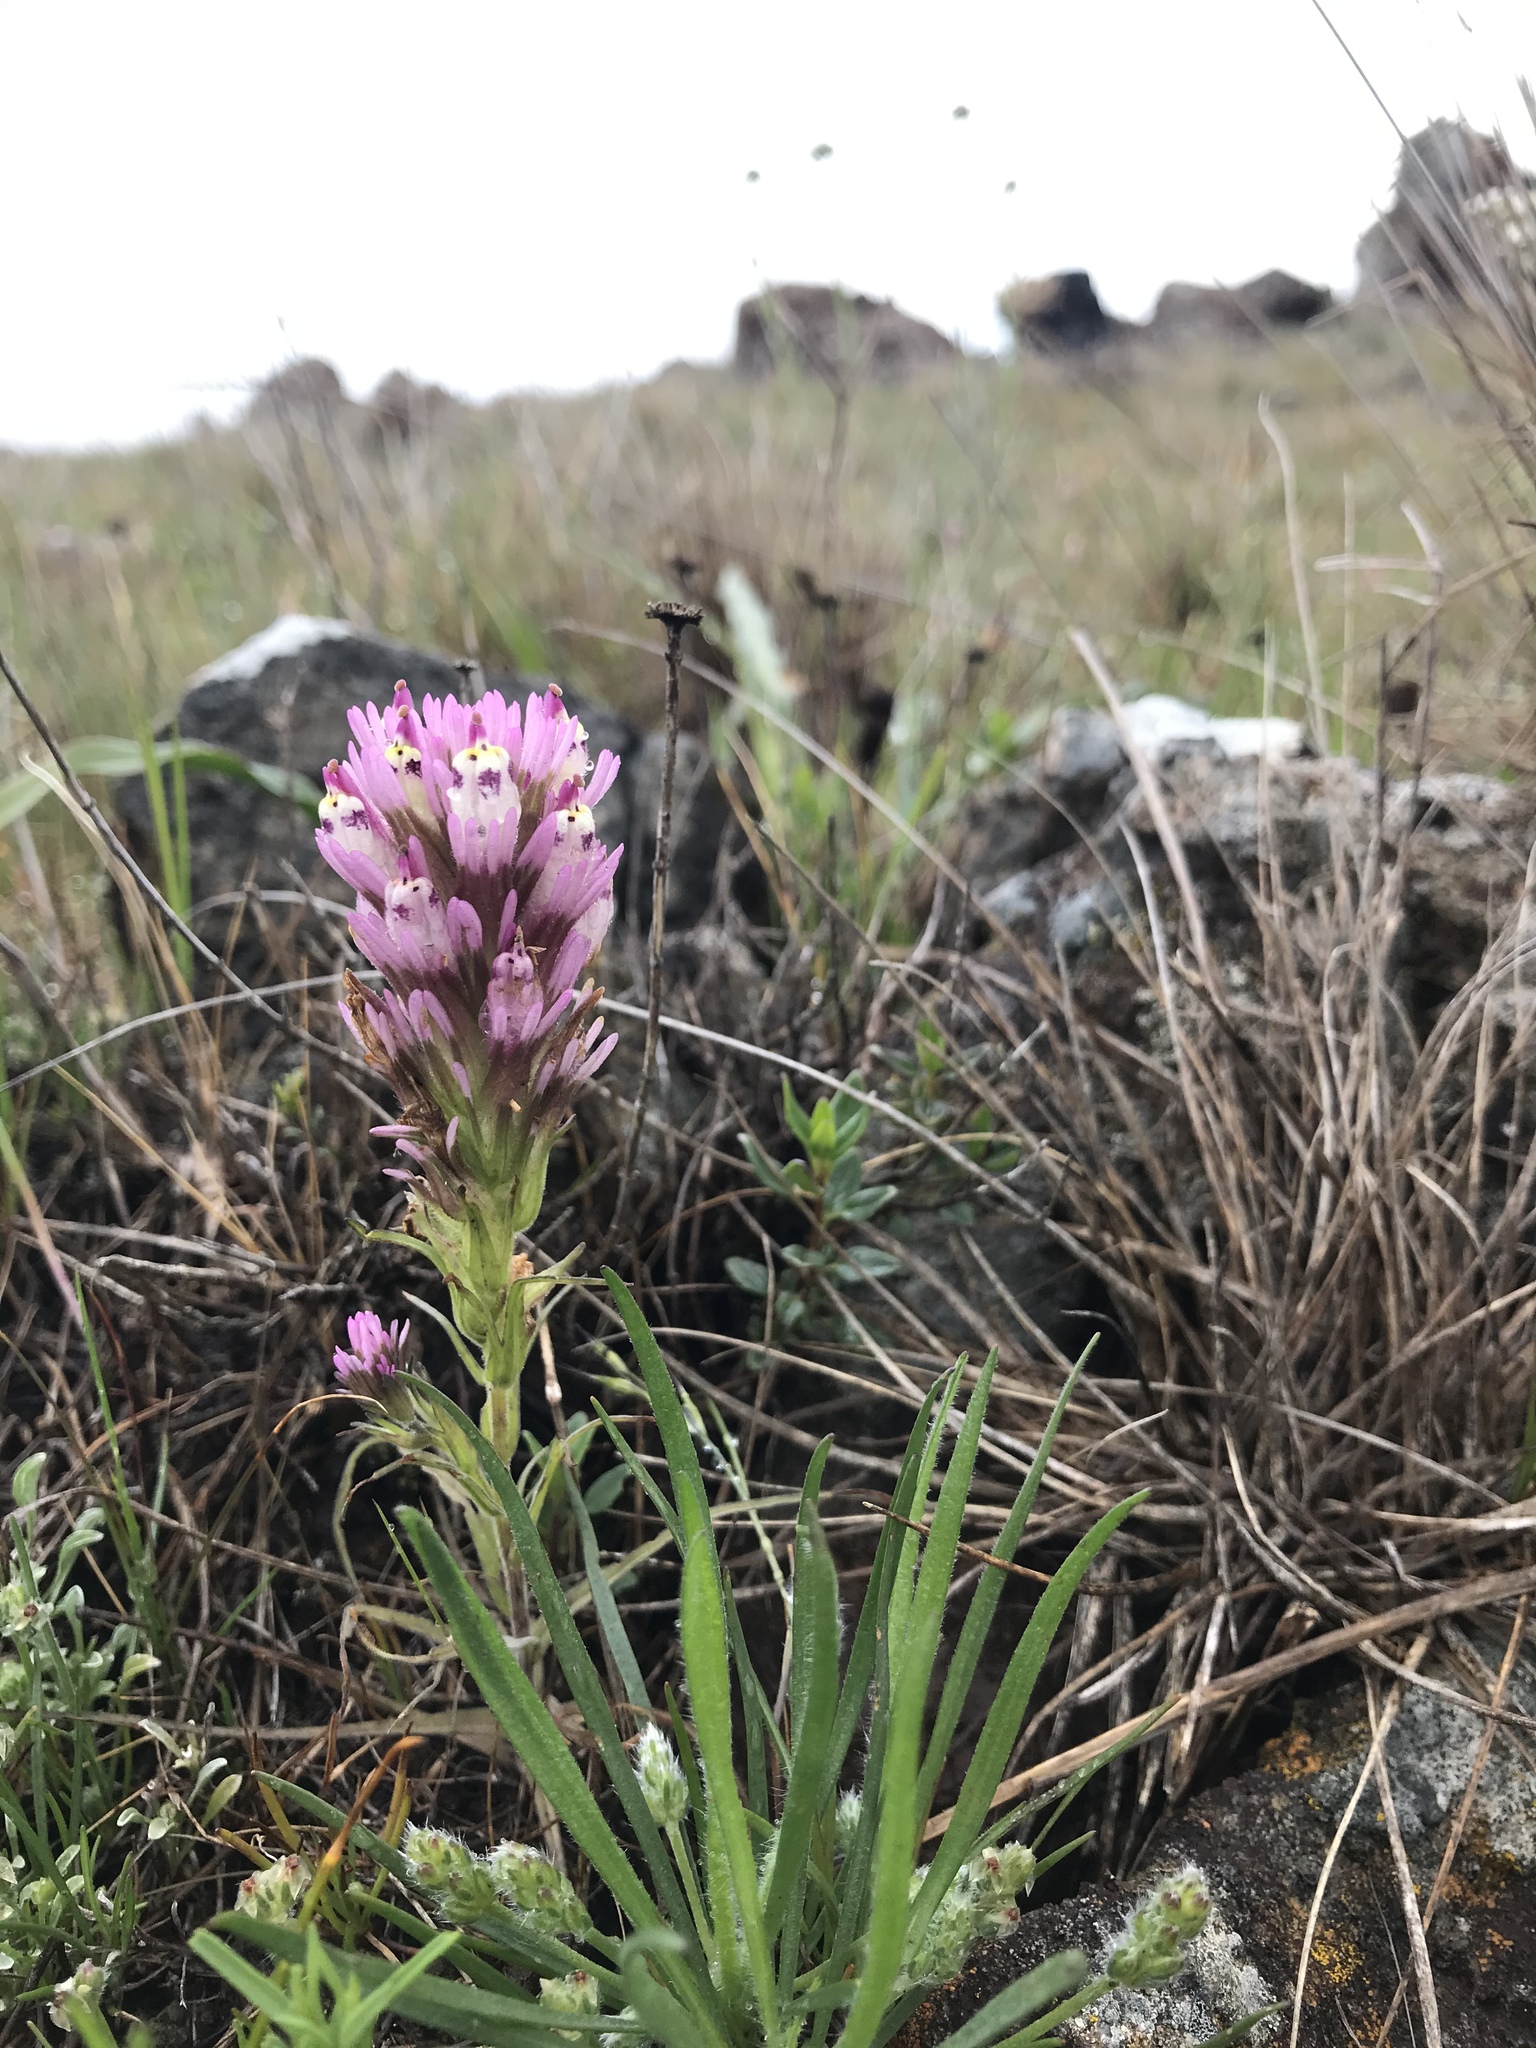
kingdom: Plantae
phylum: Tracheophyta
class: Magnoliopsida
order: Lamiales
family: Orobanchaceae
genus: Castilleja
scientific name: Castilleja densiflora
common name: Dense-flower indian paintbrush
